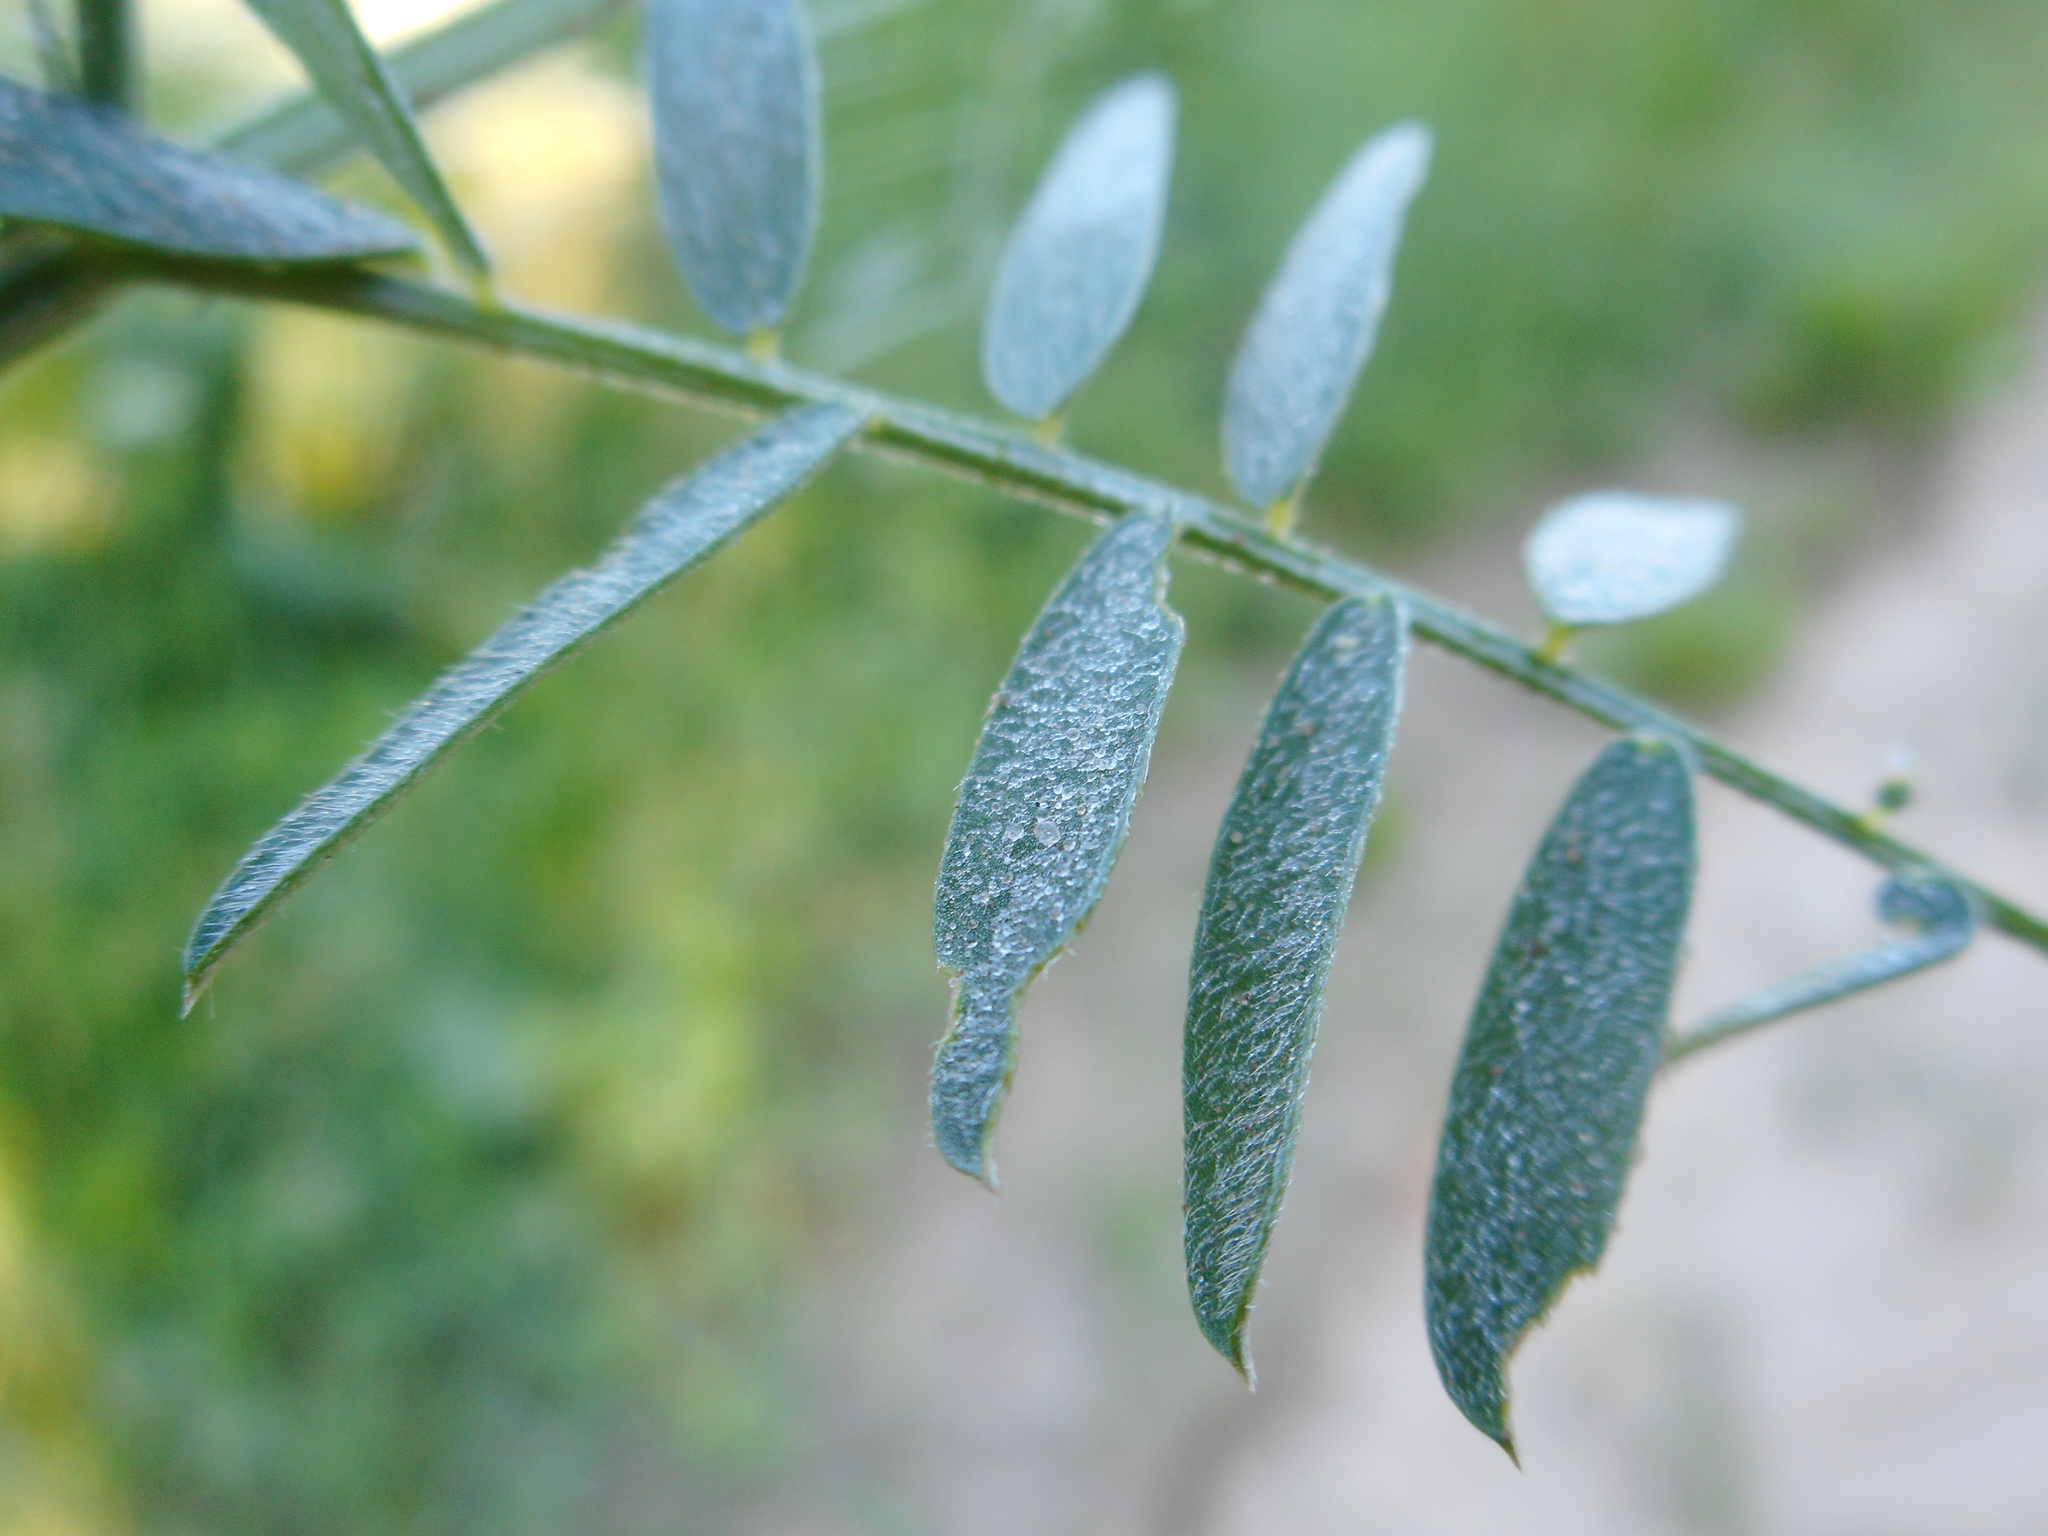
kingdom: Plantae
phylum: Tracheophyta
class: Magnoliopsida
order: Fabales
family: Fabaceae
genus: Vicia
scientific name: Vicia cracca
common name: Bird vetch
